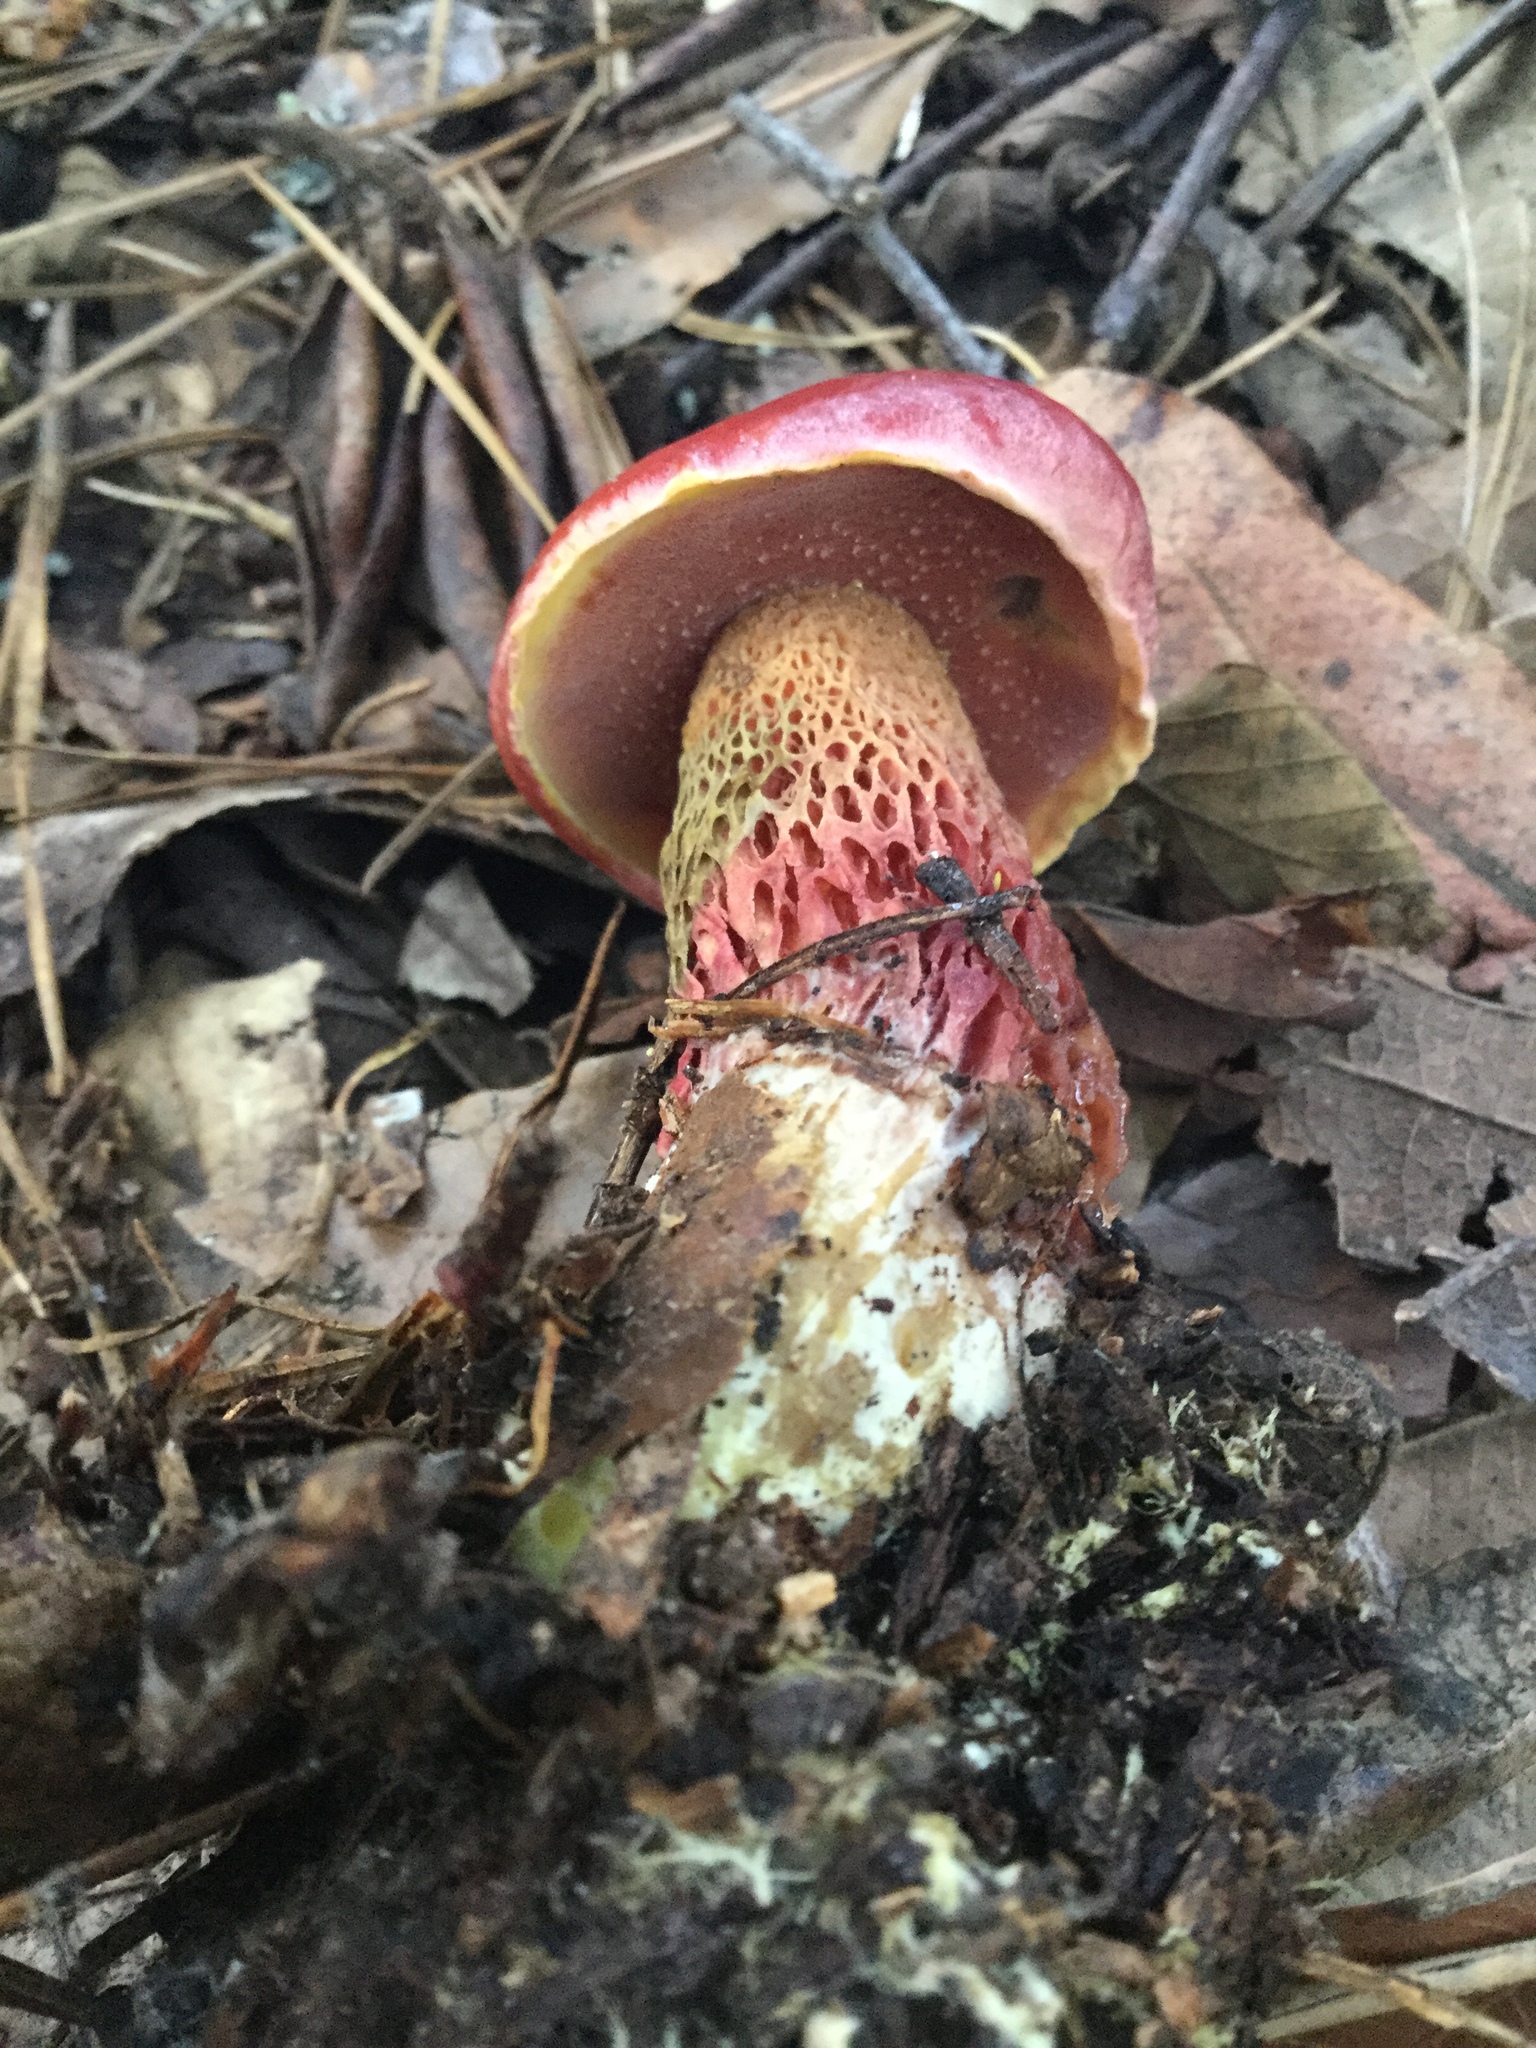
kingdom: Fungi
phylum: Basidiomycota
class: Agaricomycetes
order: Boletales
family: Boletaceae
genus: Butyriboletus
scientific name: Butyriboletus frostii
